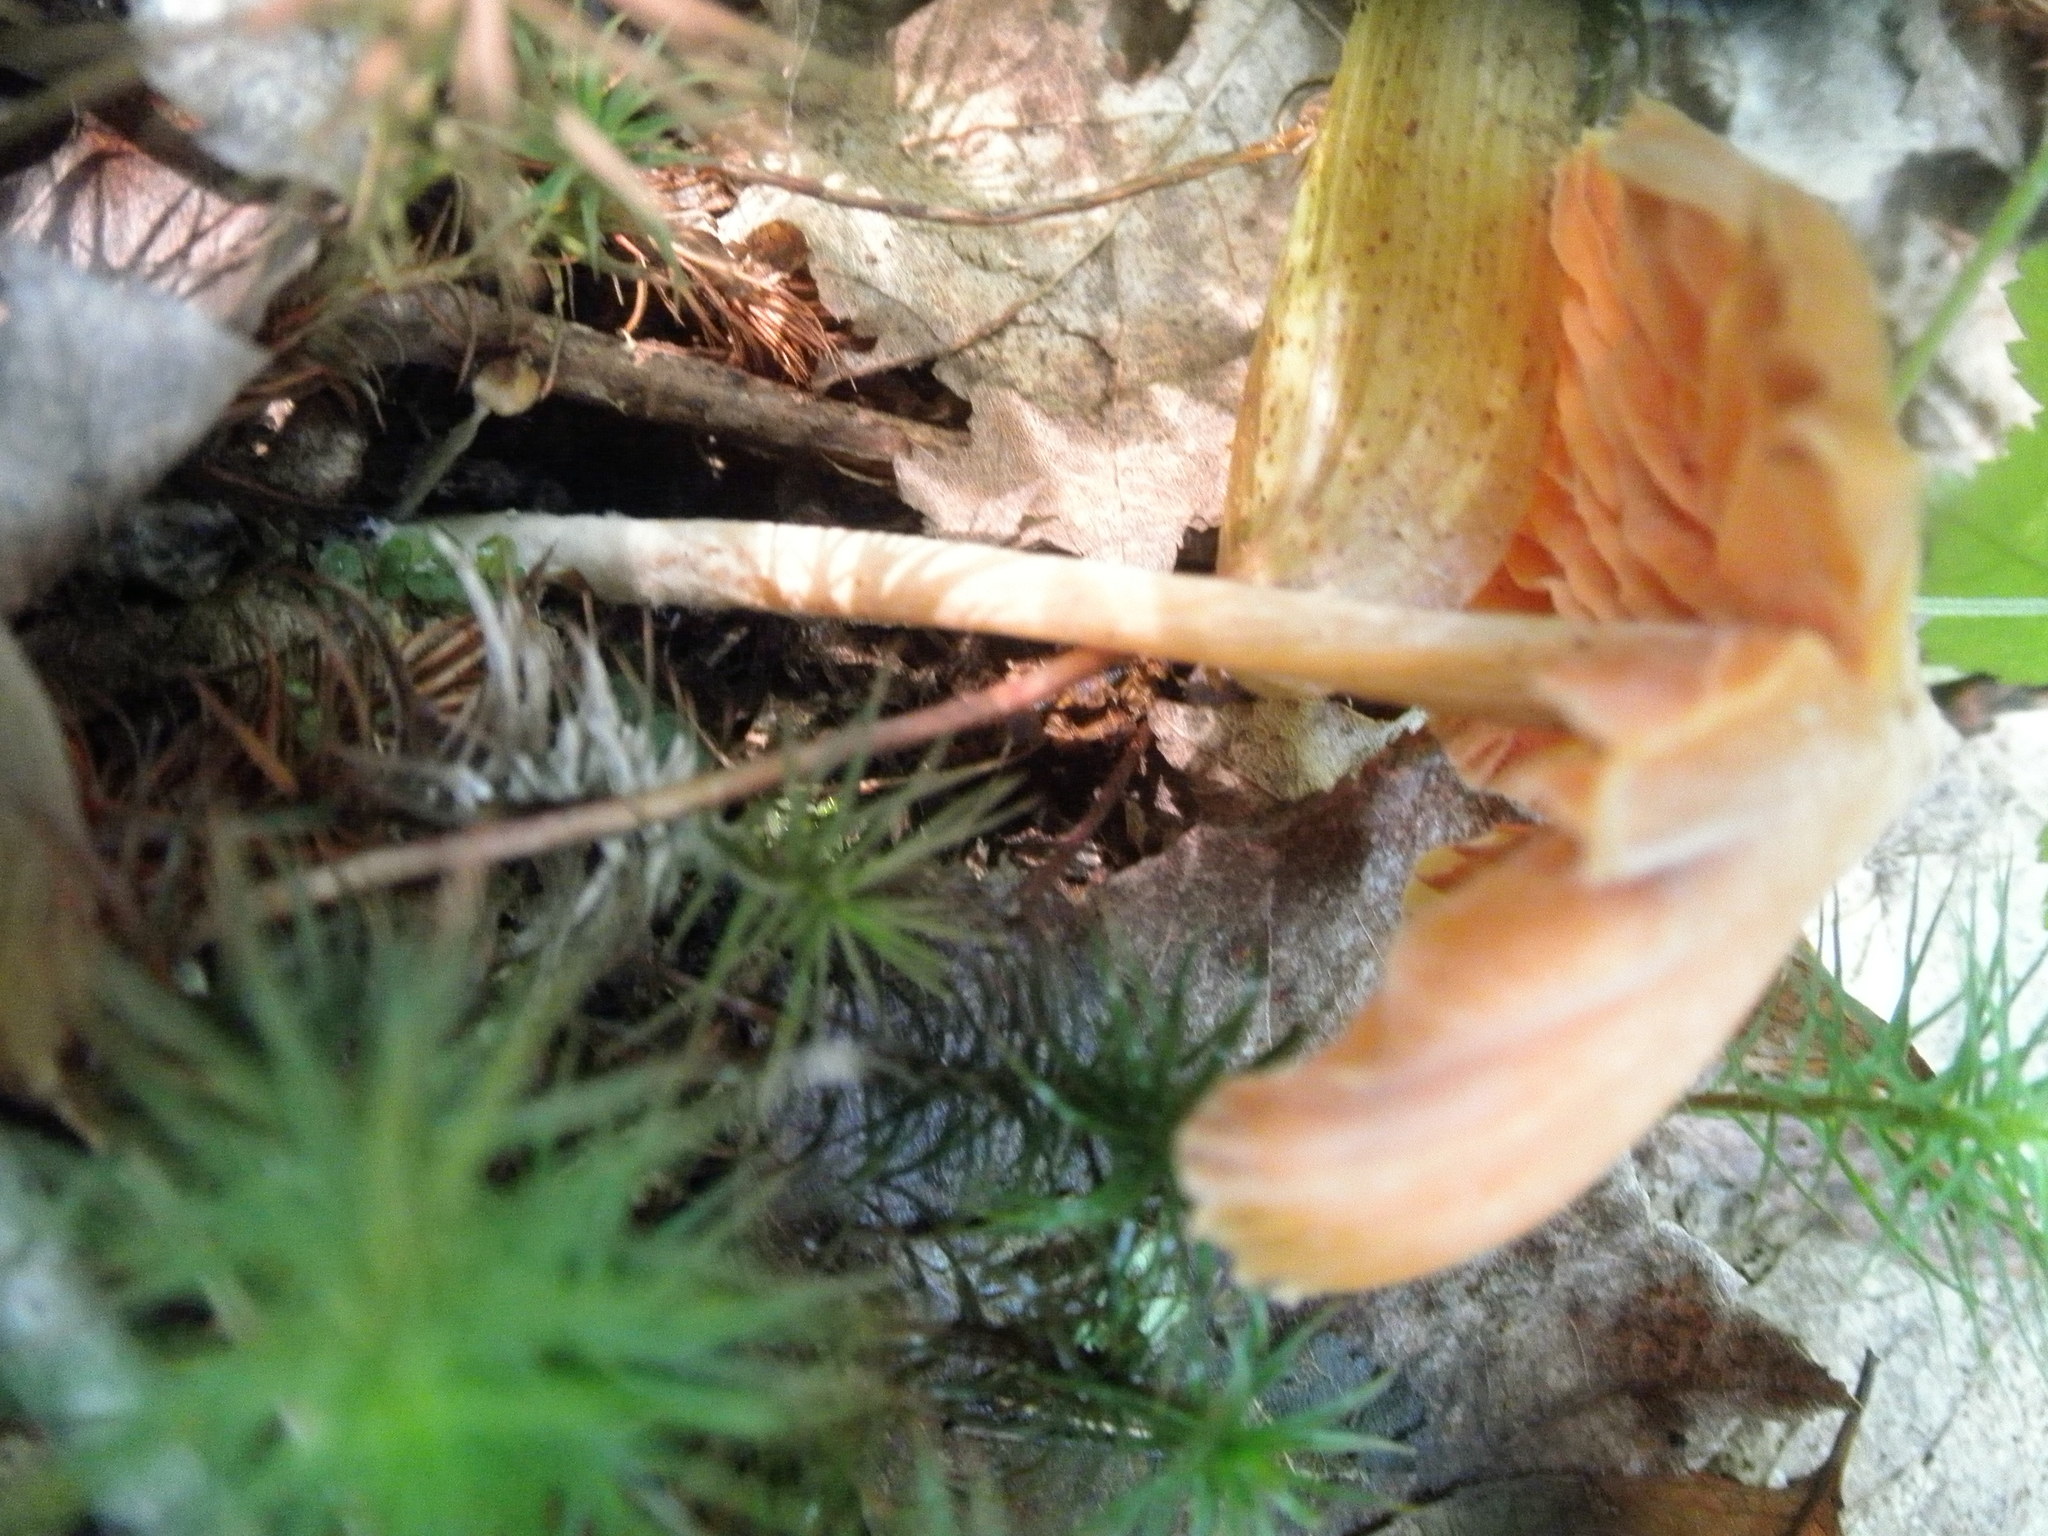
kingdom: Fungi
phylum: Basidiomycota
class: Agaricomycetes
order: Agaricales
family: Entolomataceae
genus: Entoloma
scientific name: Entoloma quadratum
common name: Salmon pinkgill
